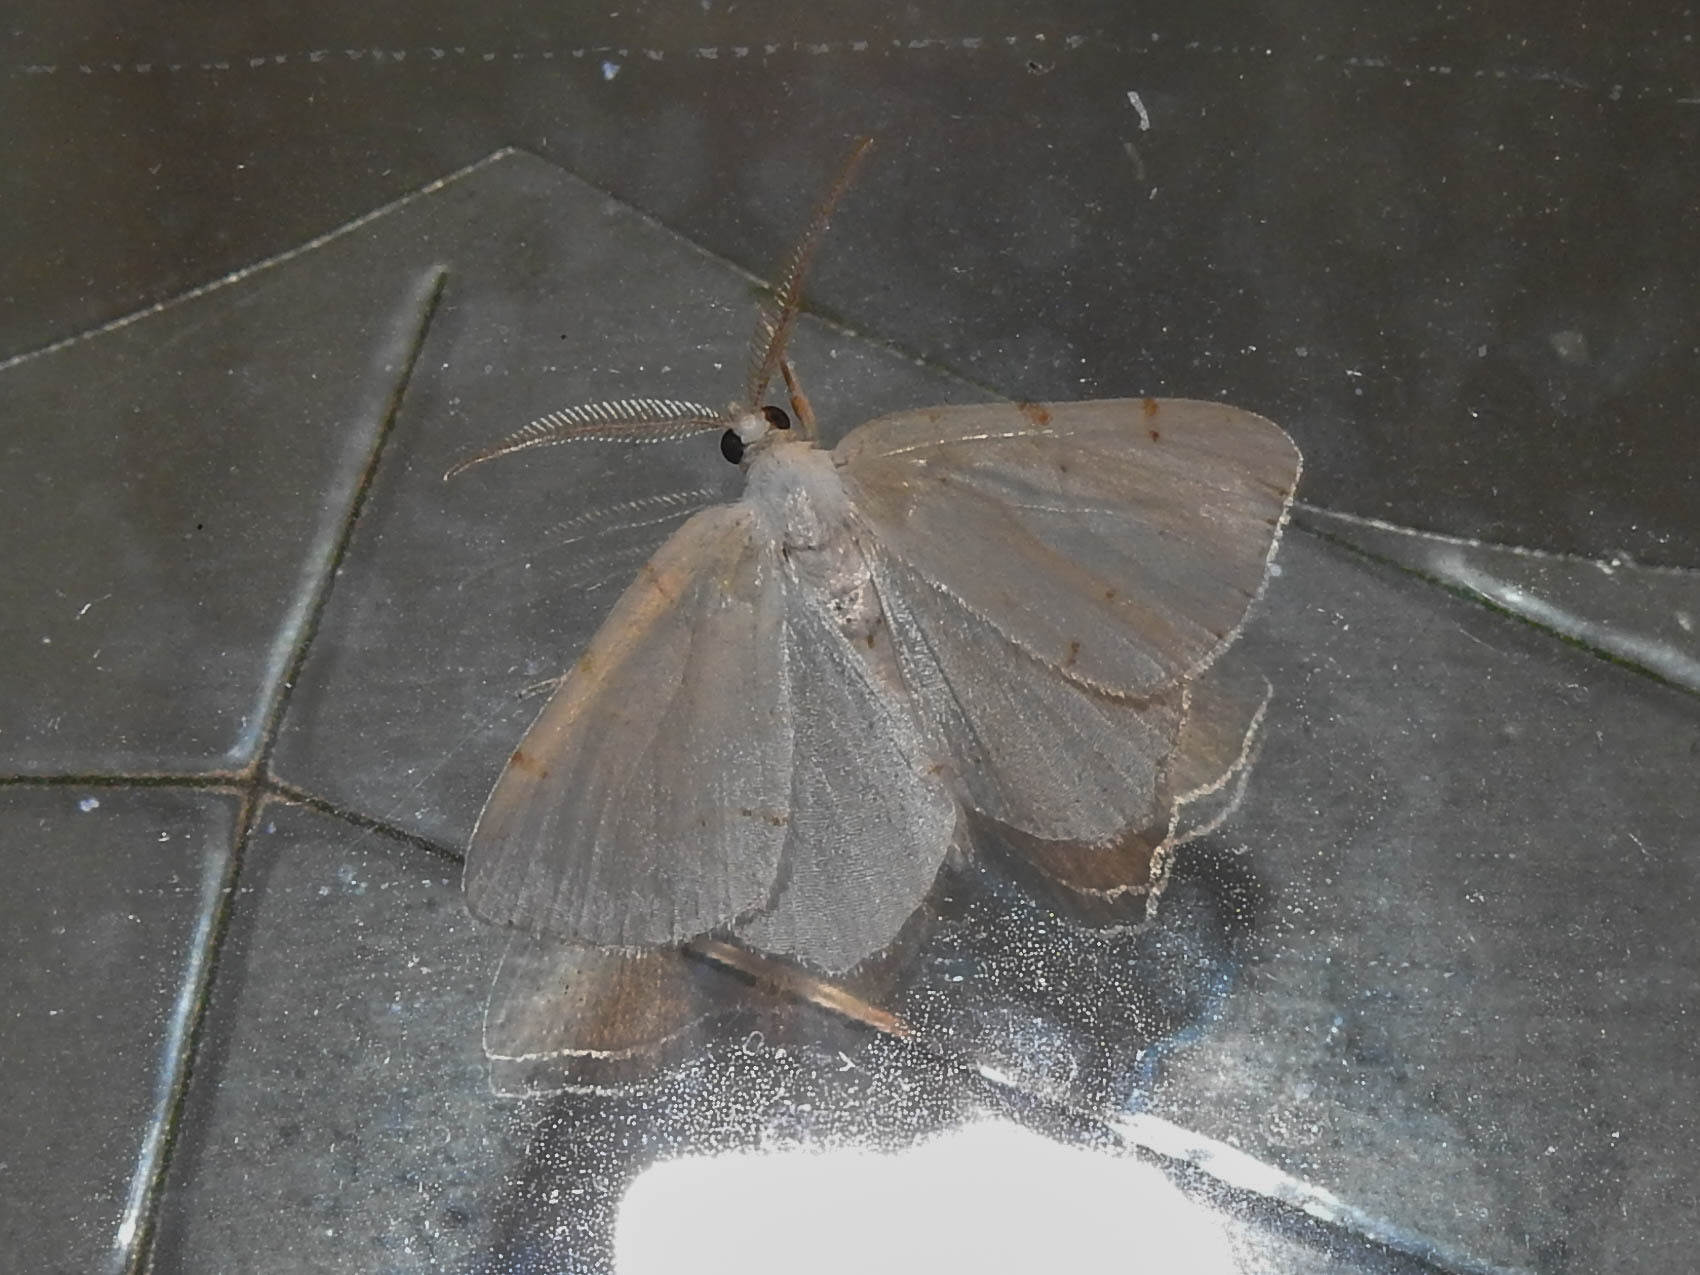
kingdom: Animalia
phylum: Arthropoda
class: Insecta
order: Lepidoptera
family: Geometridae
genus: Macaria
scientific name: Macaria pustularia
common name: Lesser maple spanworm moth
